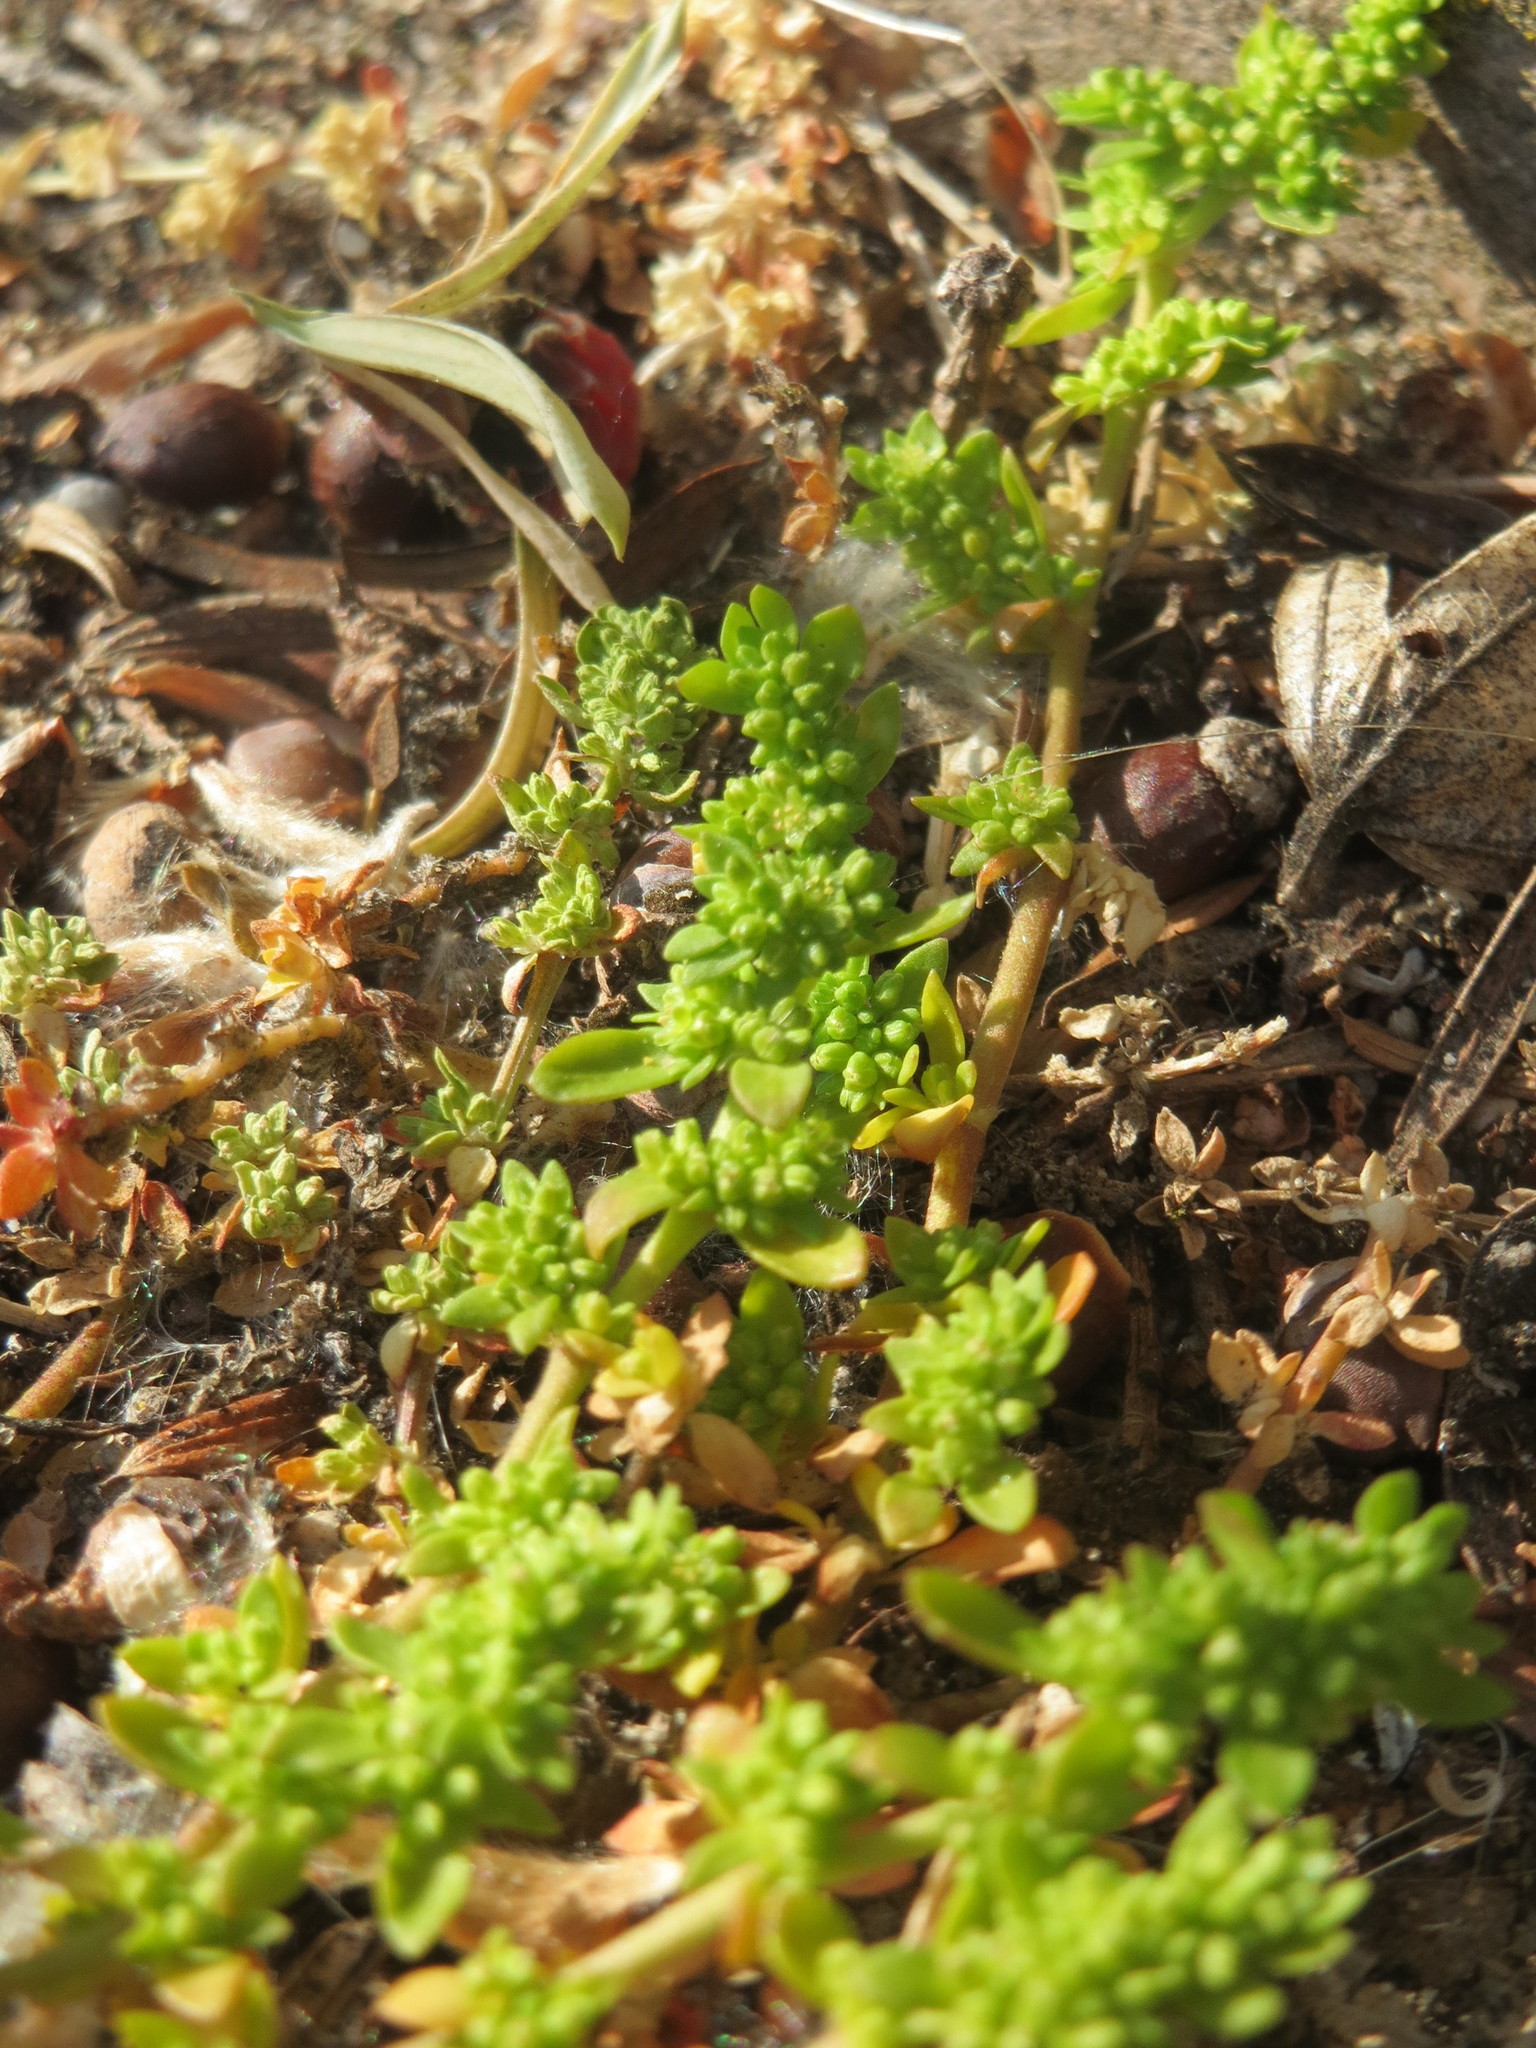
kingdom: Plantae
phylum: Tracheophyta
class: Magnoliopsida
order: Caryophyllales
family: Caryophyllaceae
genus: Herniaria
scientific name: Herniaria glabra
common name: Smooth rupturewort
